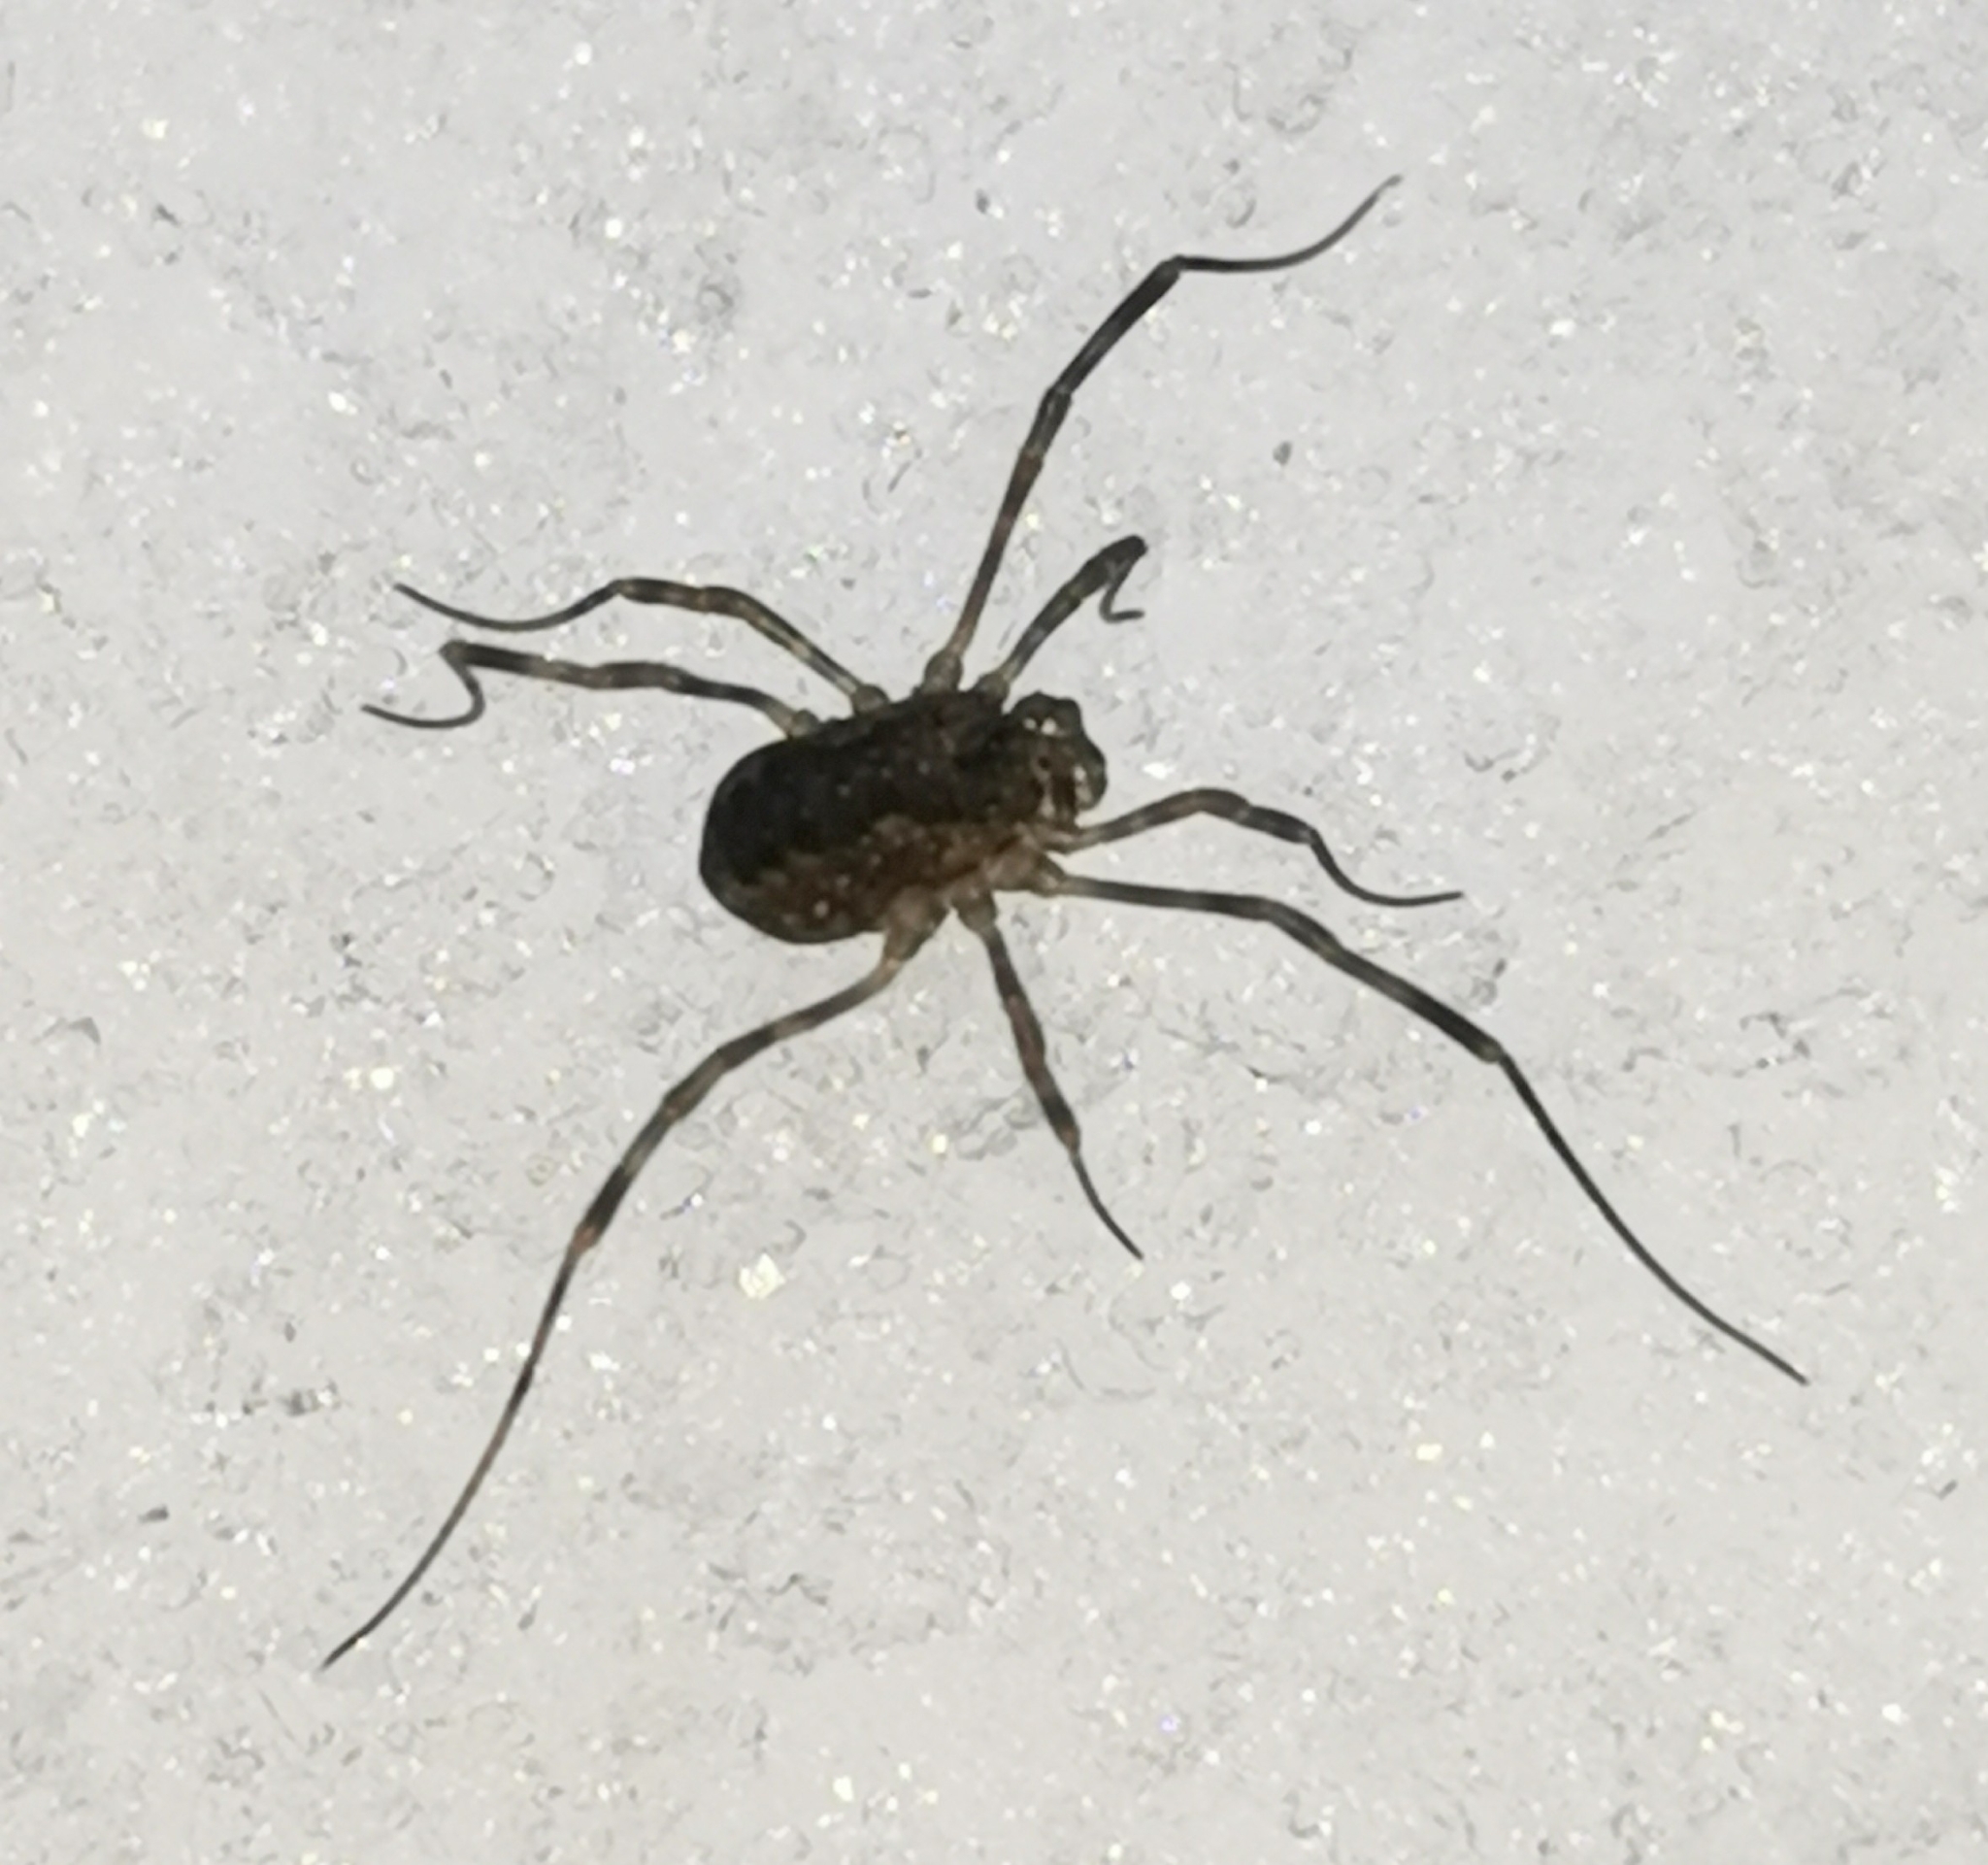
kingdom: Animalia
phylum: Arthropoda
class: Arachnida
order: Opiliones
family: Phalangiidae
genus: Rilaena
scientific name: Rilaena triangularis
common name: Spring harvestman
